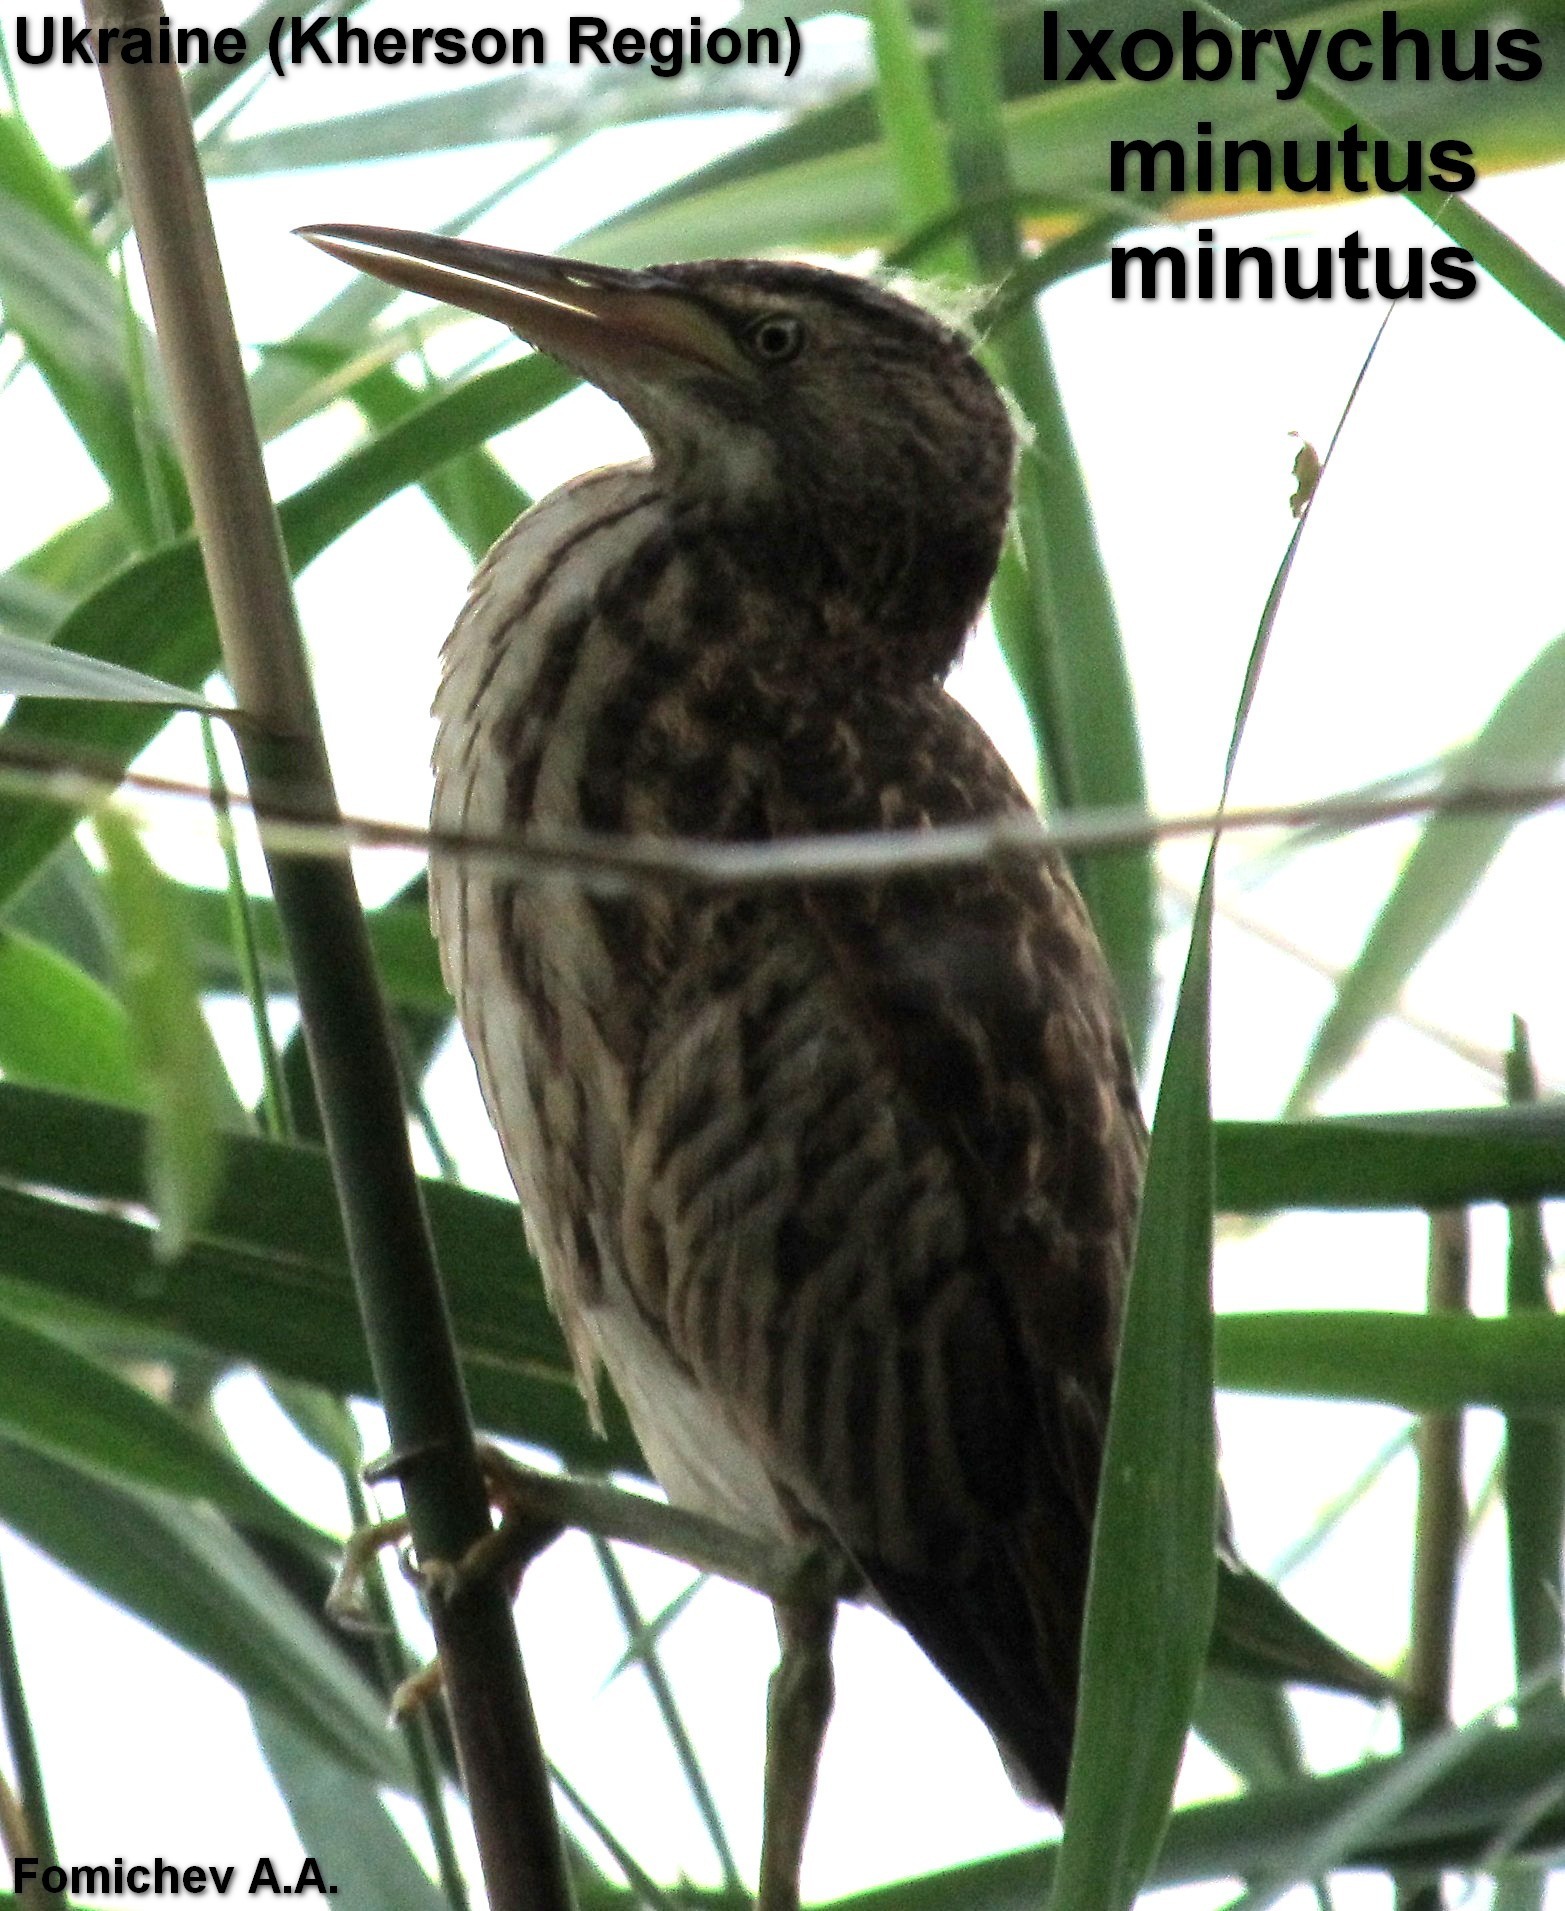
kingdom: Animalia
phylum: Chordata
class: Aves
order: Pelecaniformes
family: Ardeidae
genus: Ixobrychus
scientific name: Ixobrychus minutus
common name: Little bittern
